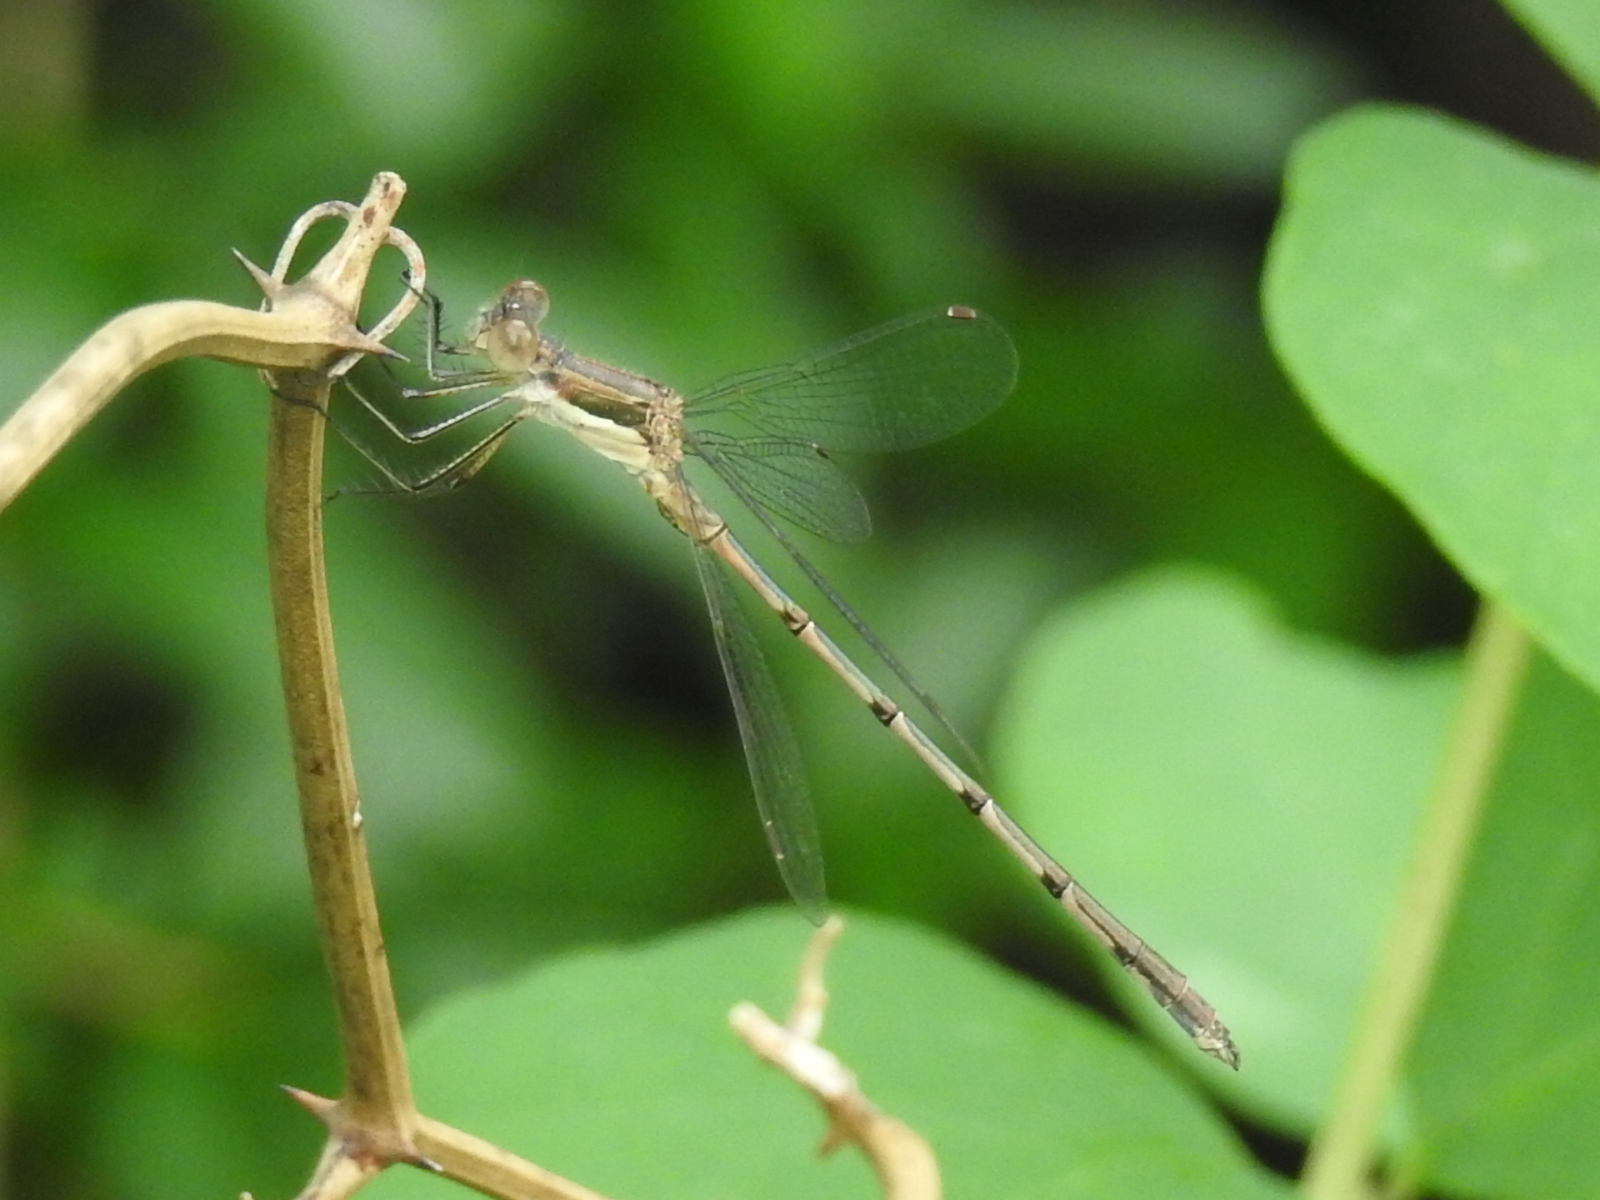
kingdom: Animalia
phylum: Arthropoda
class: Insecta
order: Odonata
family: Lestidae
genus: Lestes
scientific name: Lestes australis
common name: Southern spreadwing
